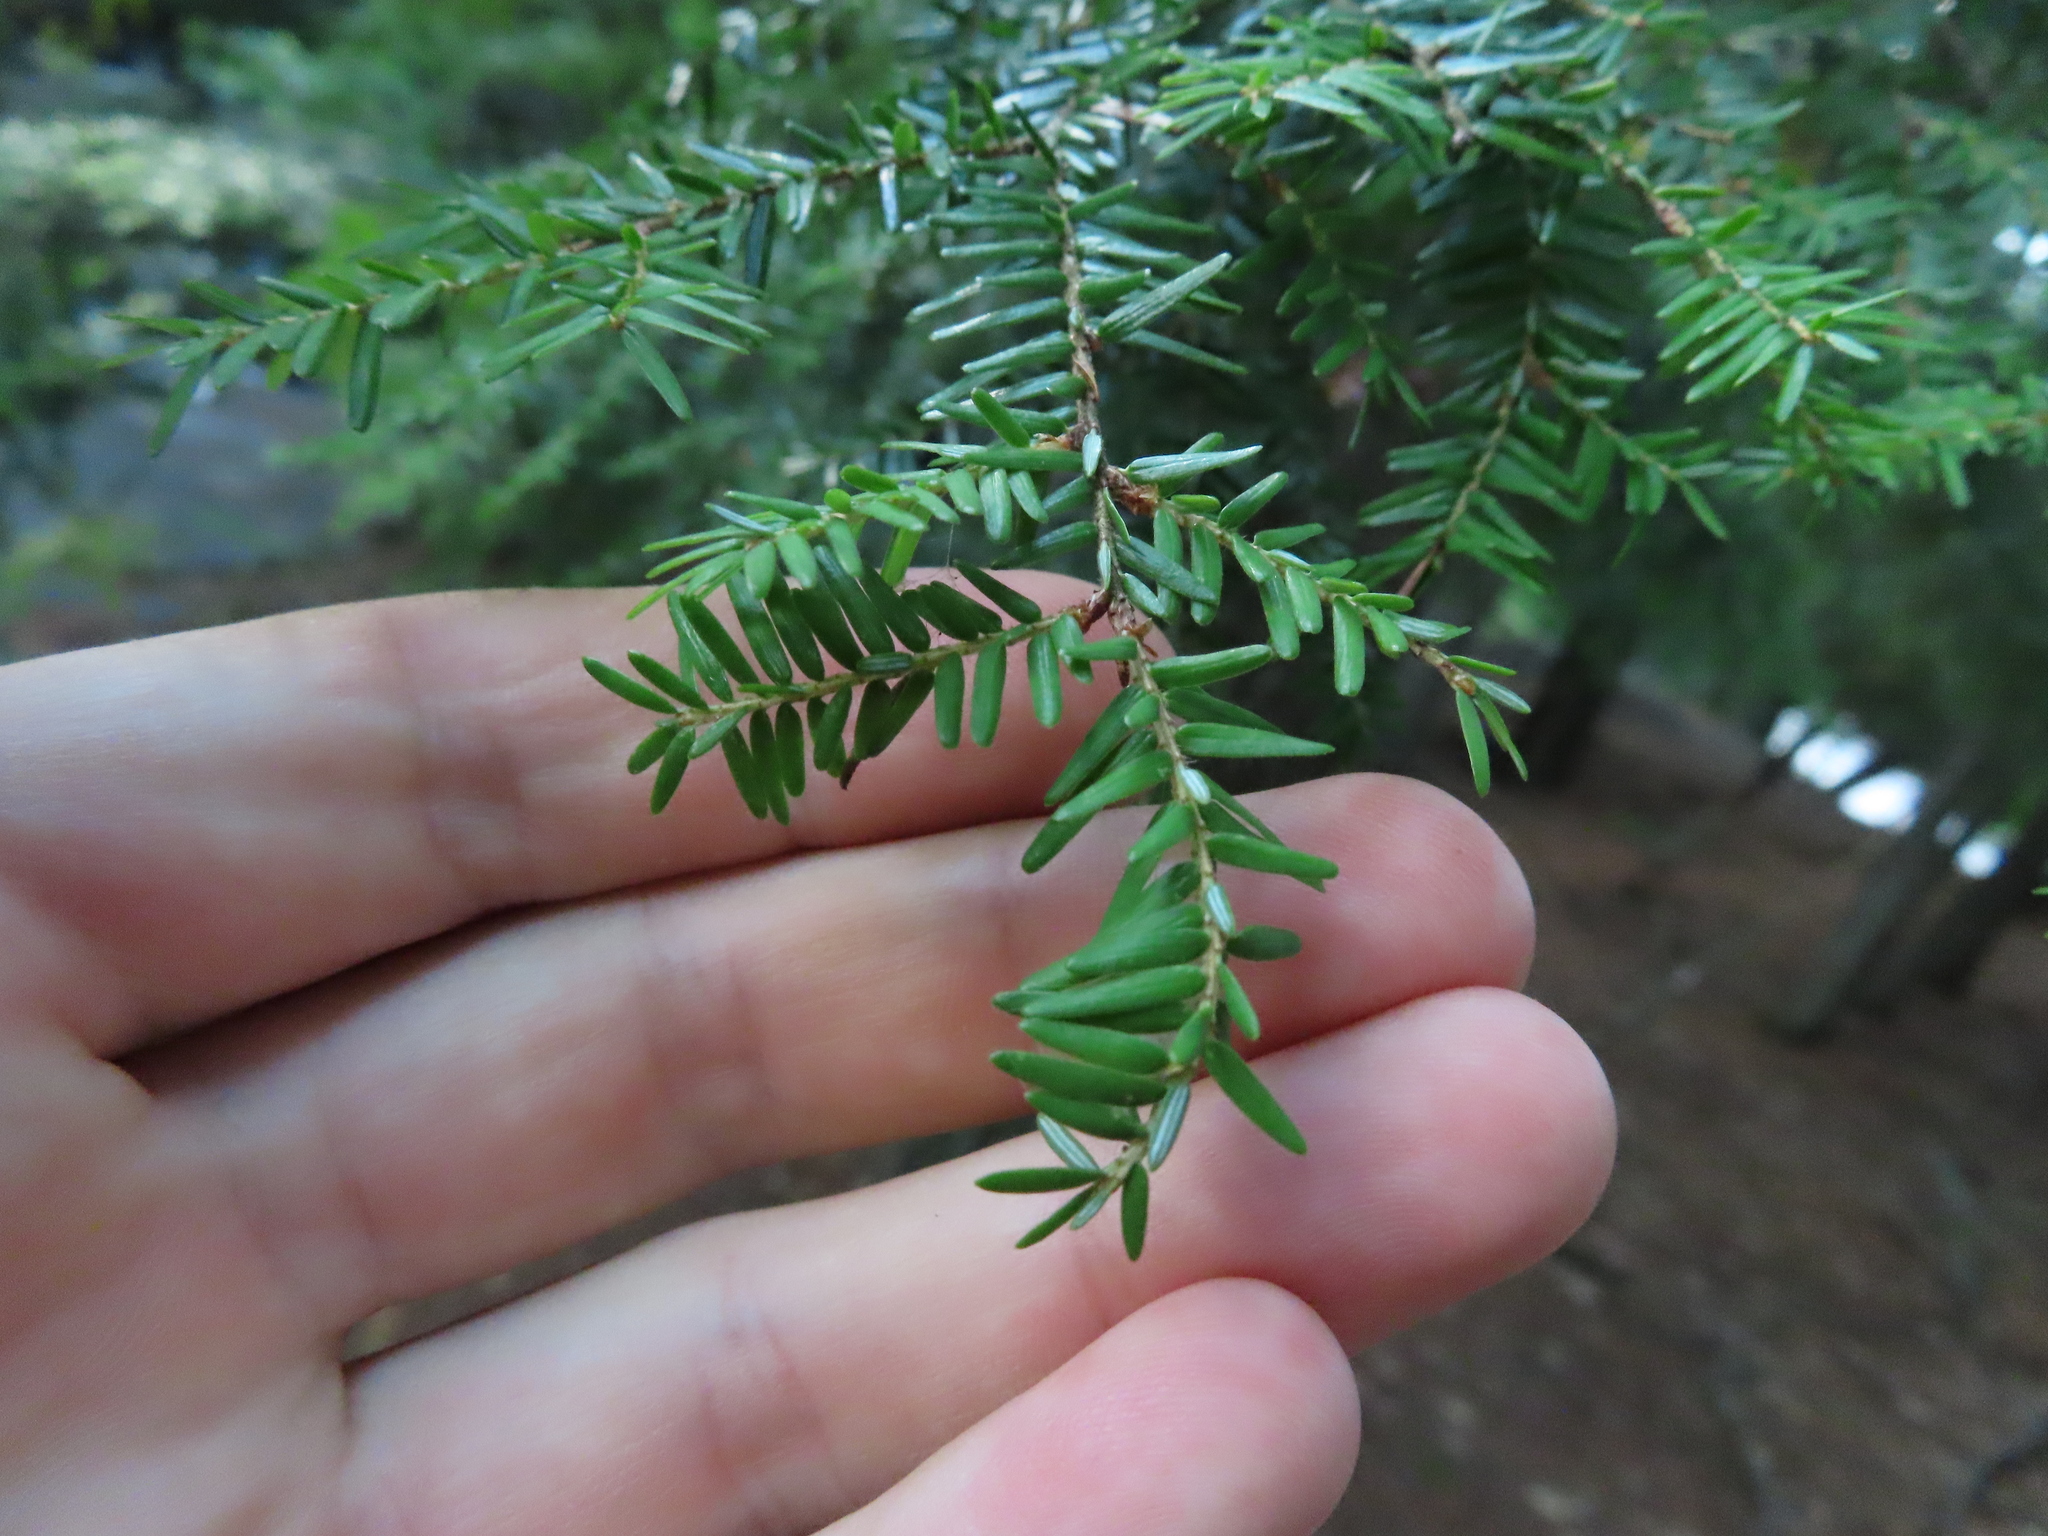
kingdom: Plantae
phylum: Tracheophyta
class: Pinopsida
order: Pinales
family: Pinaceae
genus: Tsuga
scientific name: Tsuga canadensis
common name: Eastern hemlock
